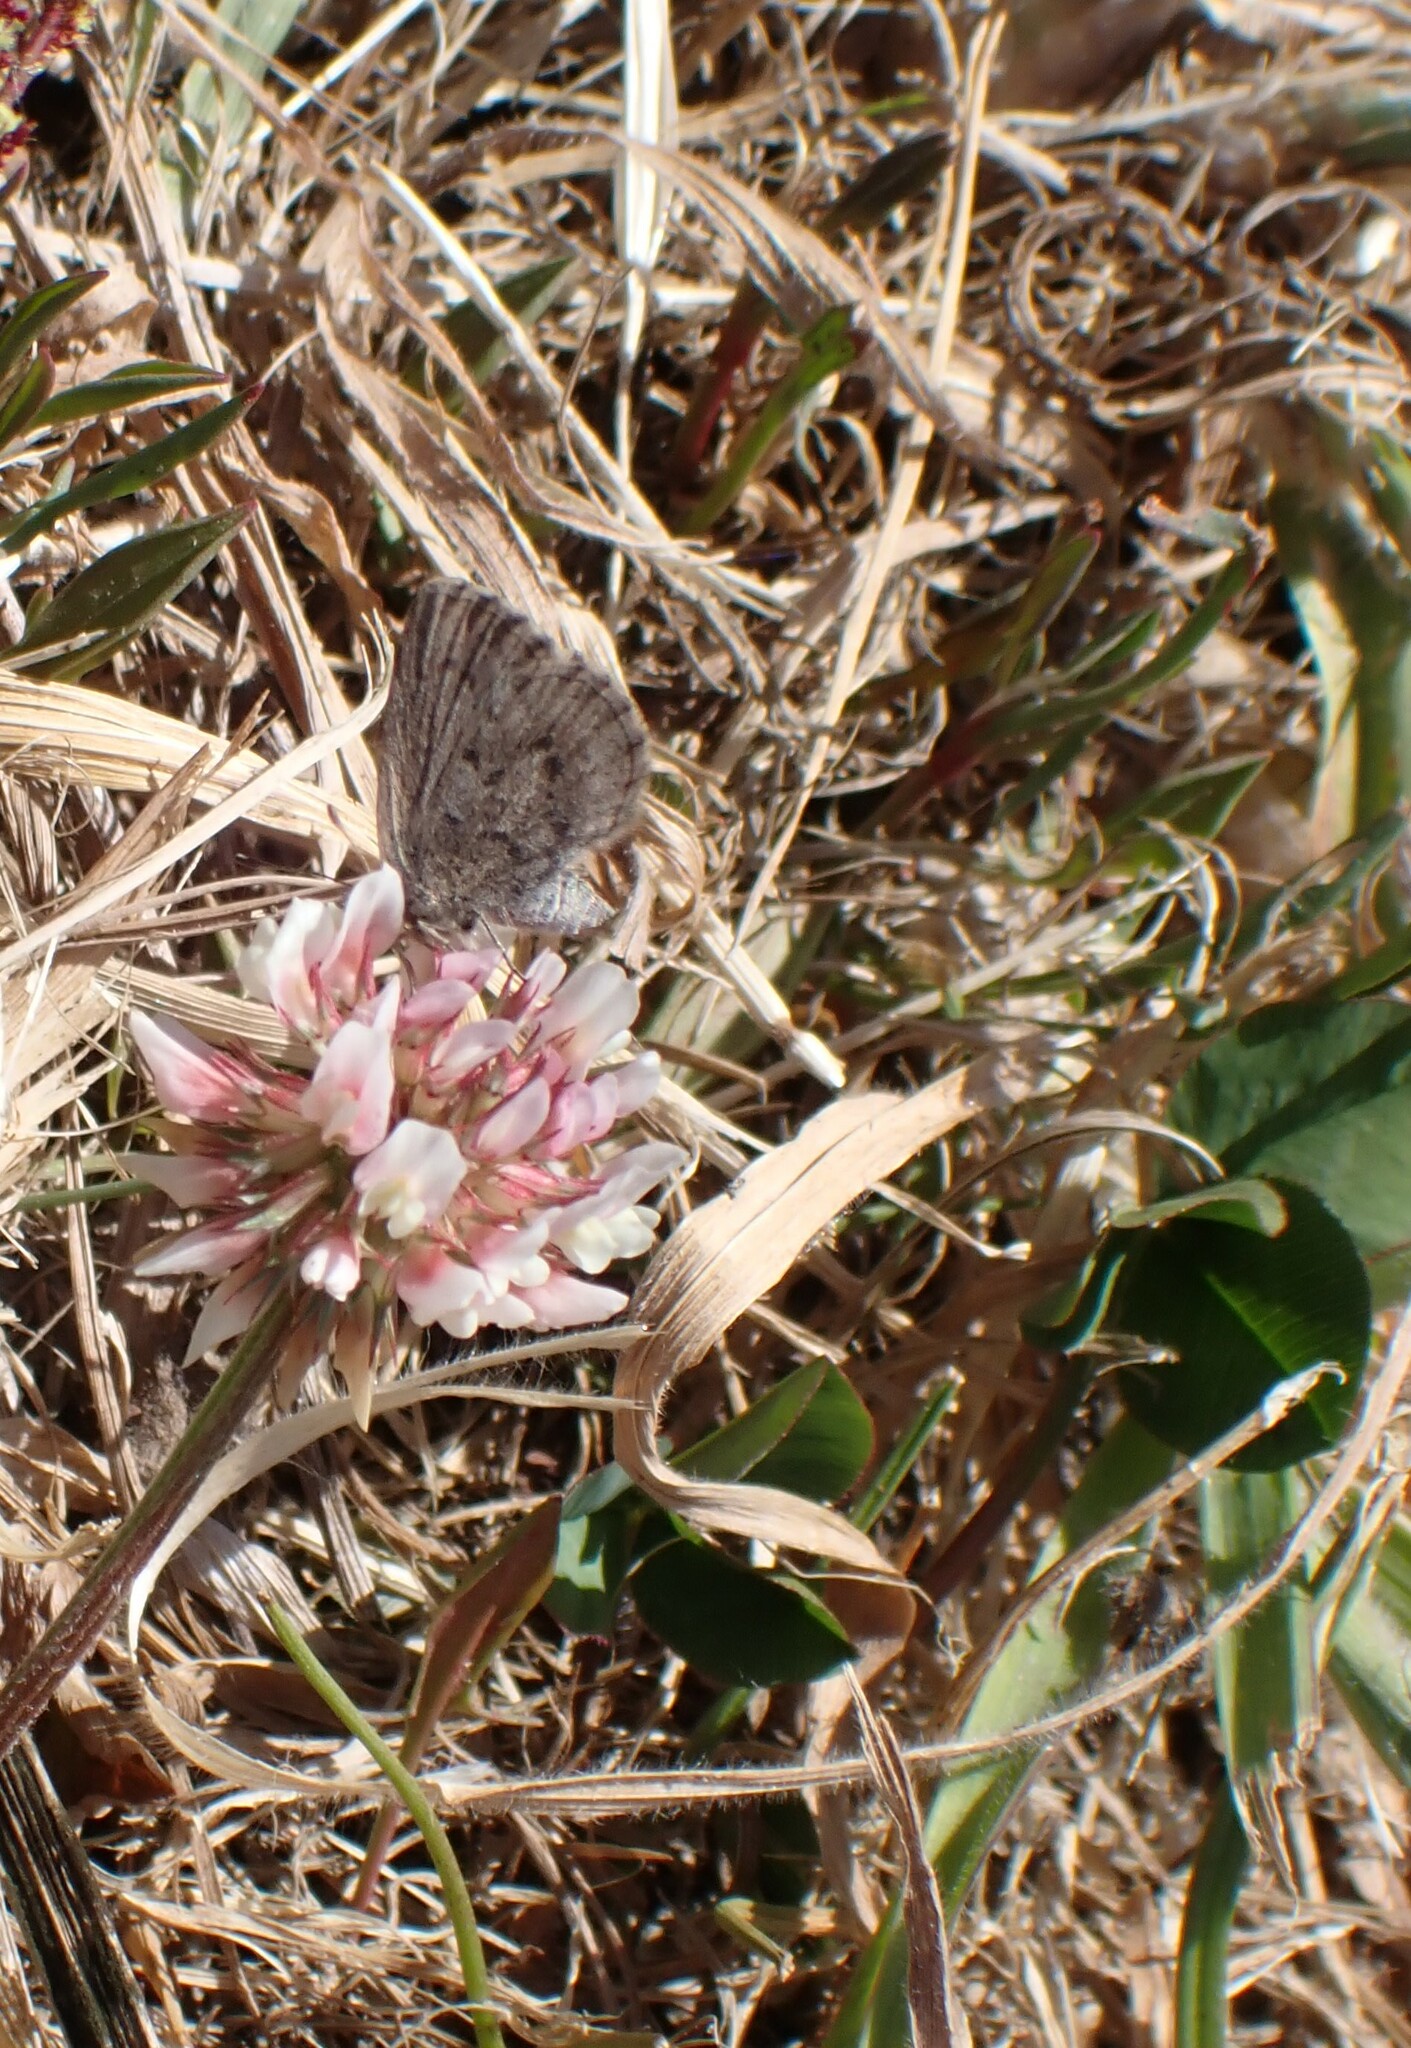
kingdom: Animalia
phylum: Arthropoda
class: Insecta
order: Lepidoptera
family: Lycaenidae
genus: Zizina
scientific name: Zizina oxleyi
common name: Southern blue
